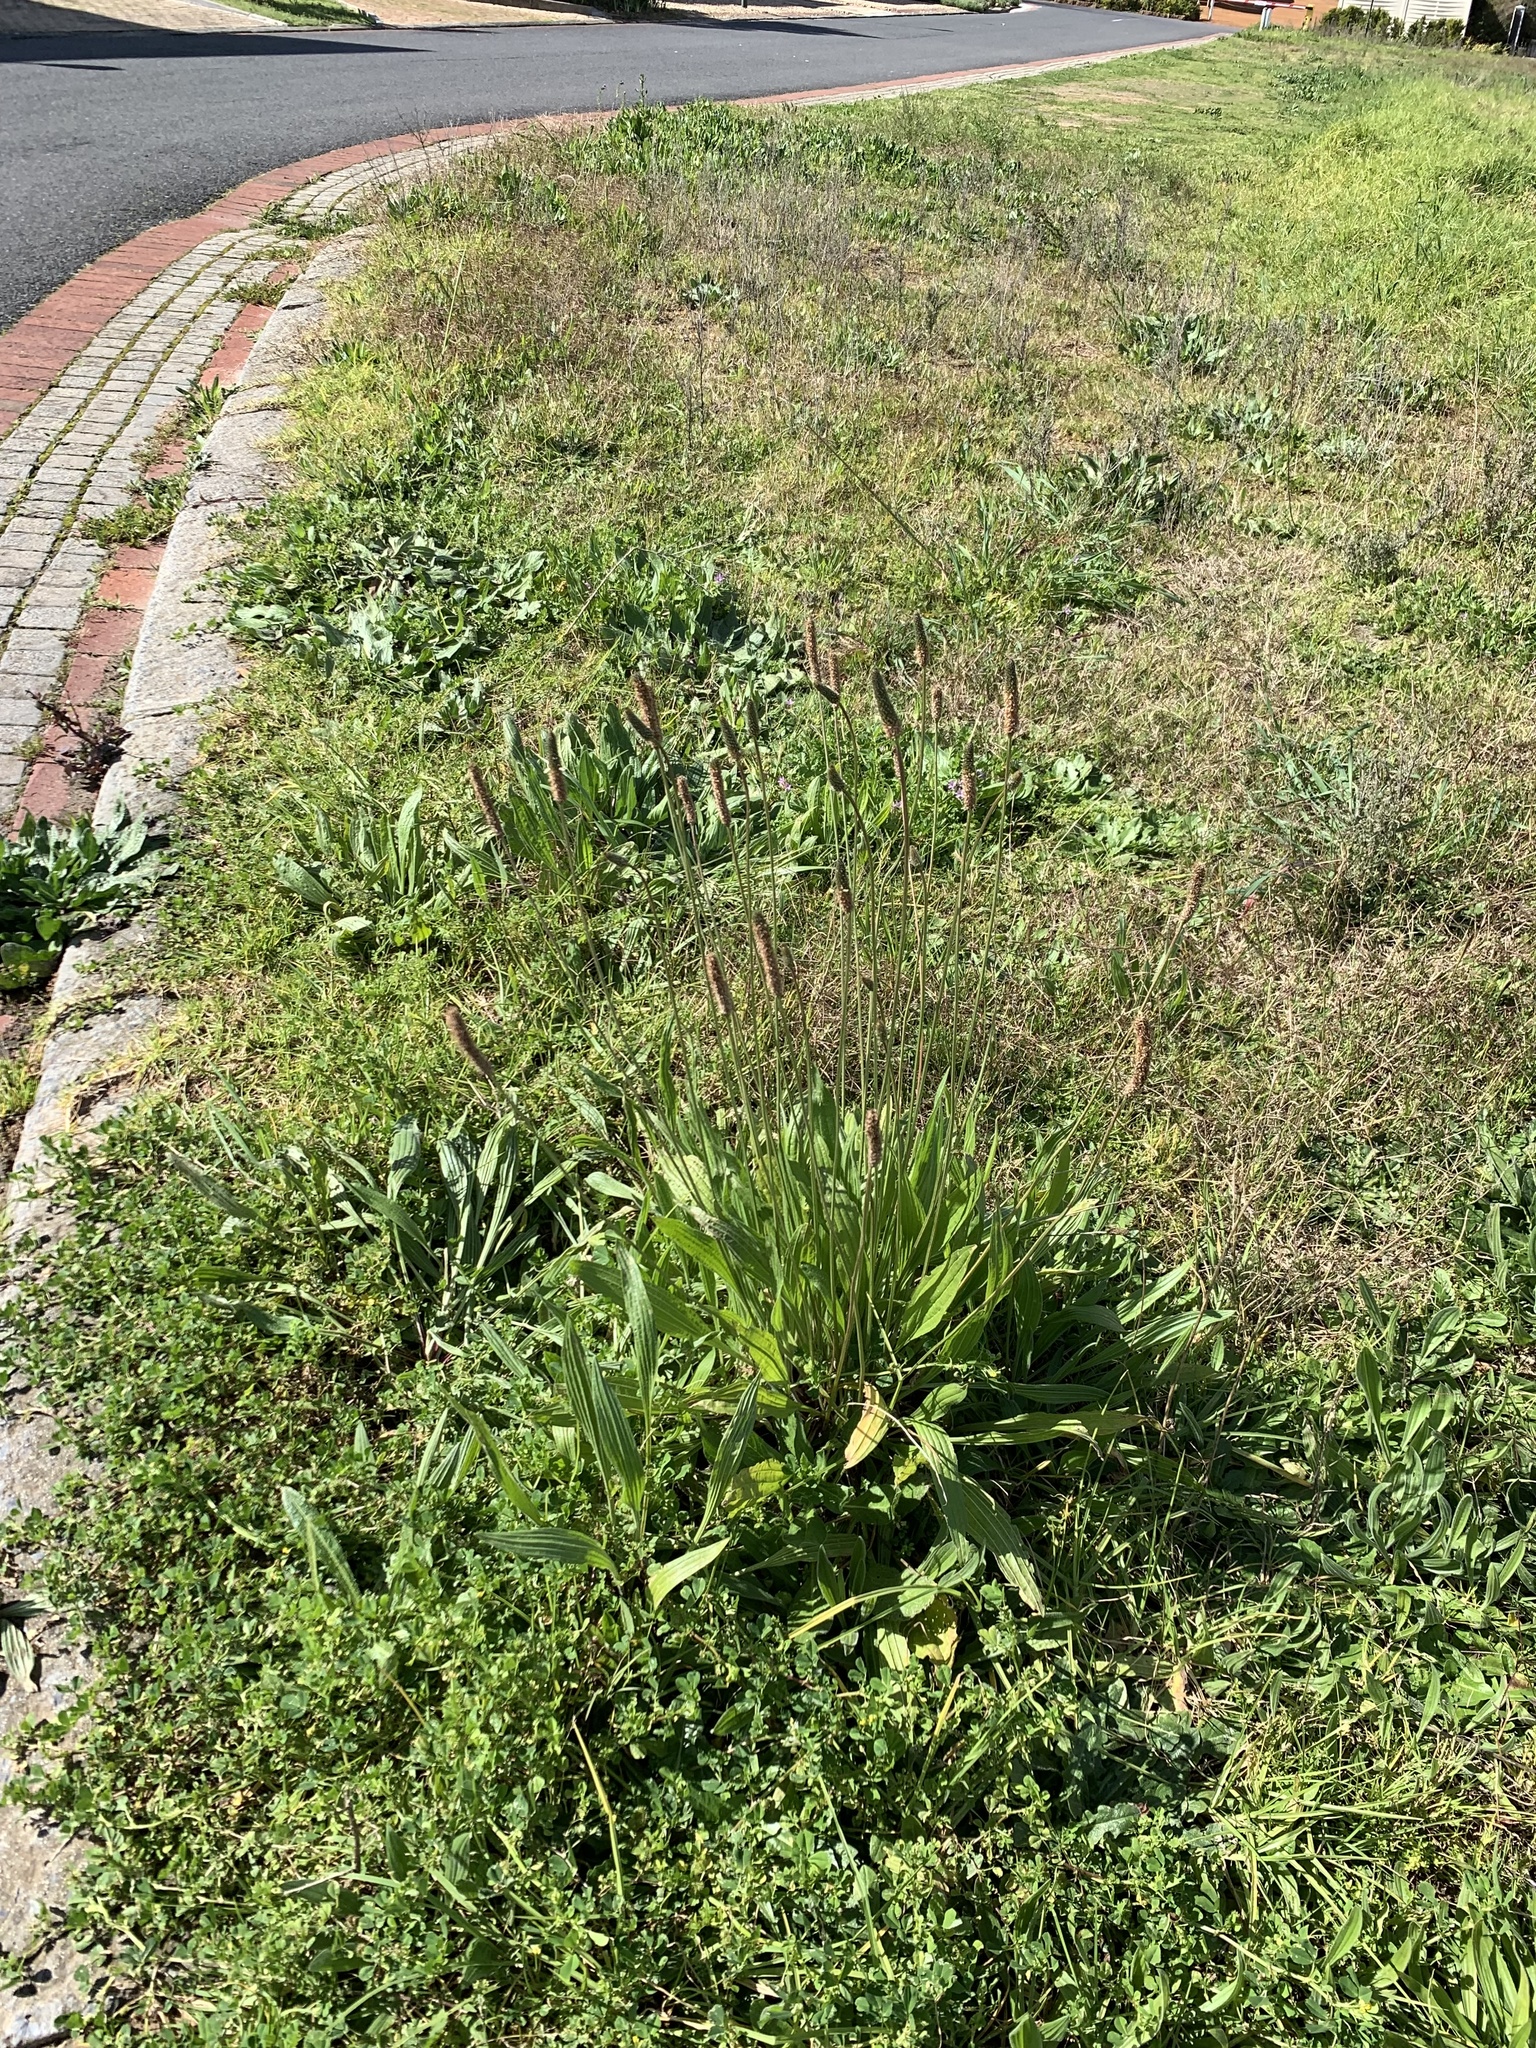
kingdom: Plantae
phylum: Tracheophyta
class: Magnoliopsida
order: Lamiales
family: Plantaginaceae
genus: Plantago
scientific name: Plantago lanceolata
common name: Ribwort plantain
